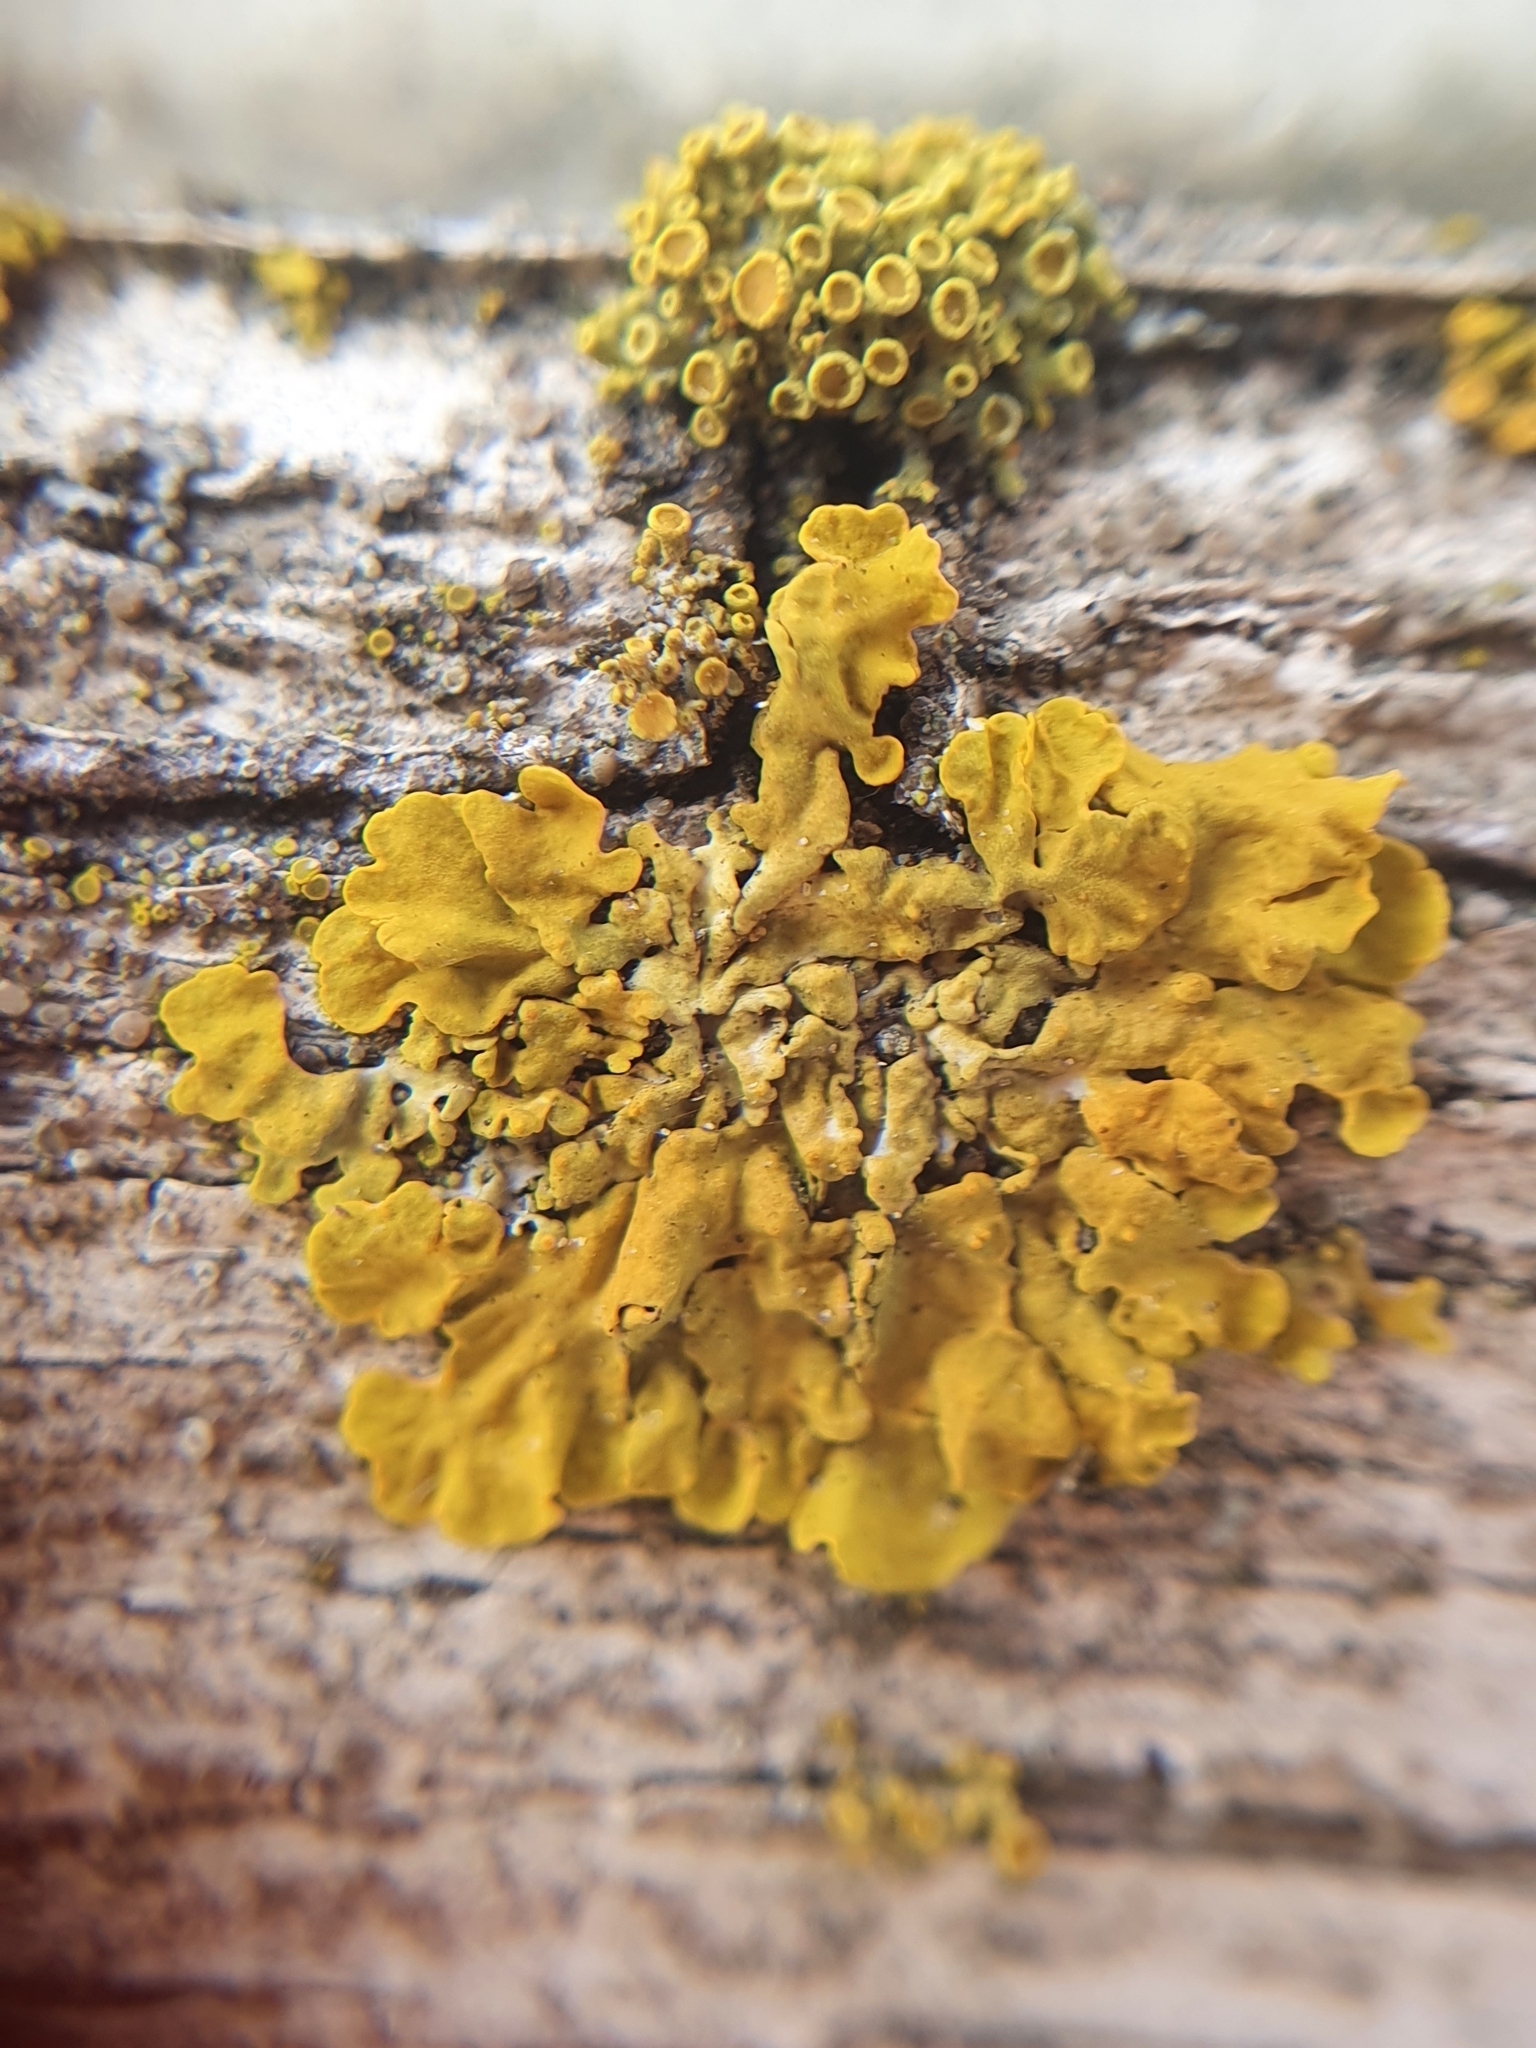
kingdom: Fungi
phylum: Ascomycota
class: Lecanoromycetes
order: Teloschistales
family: Teloschistaceae
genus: Xanthoria
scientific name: Xanthoria parietina
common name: Common orange lichen
